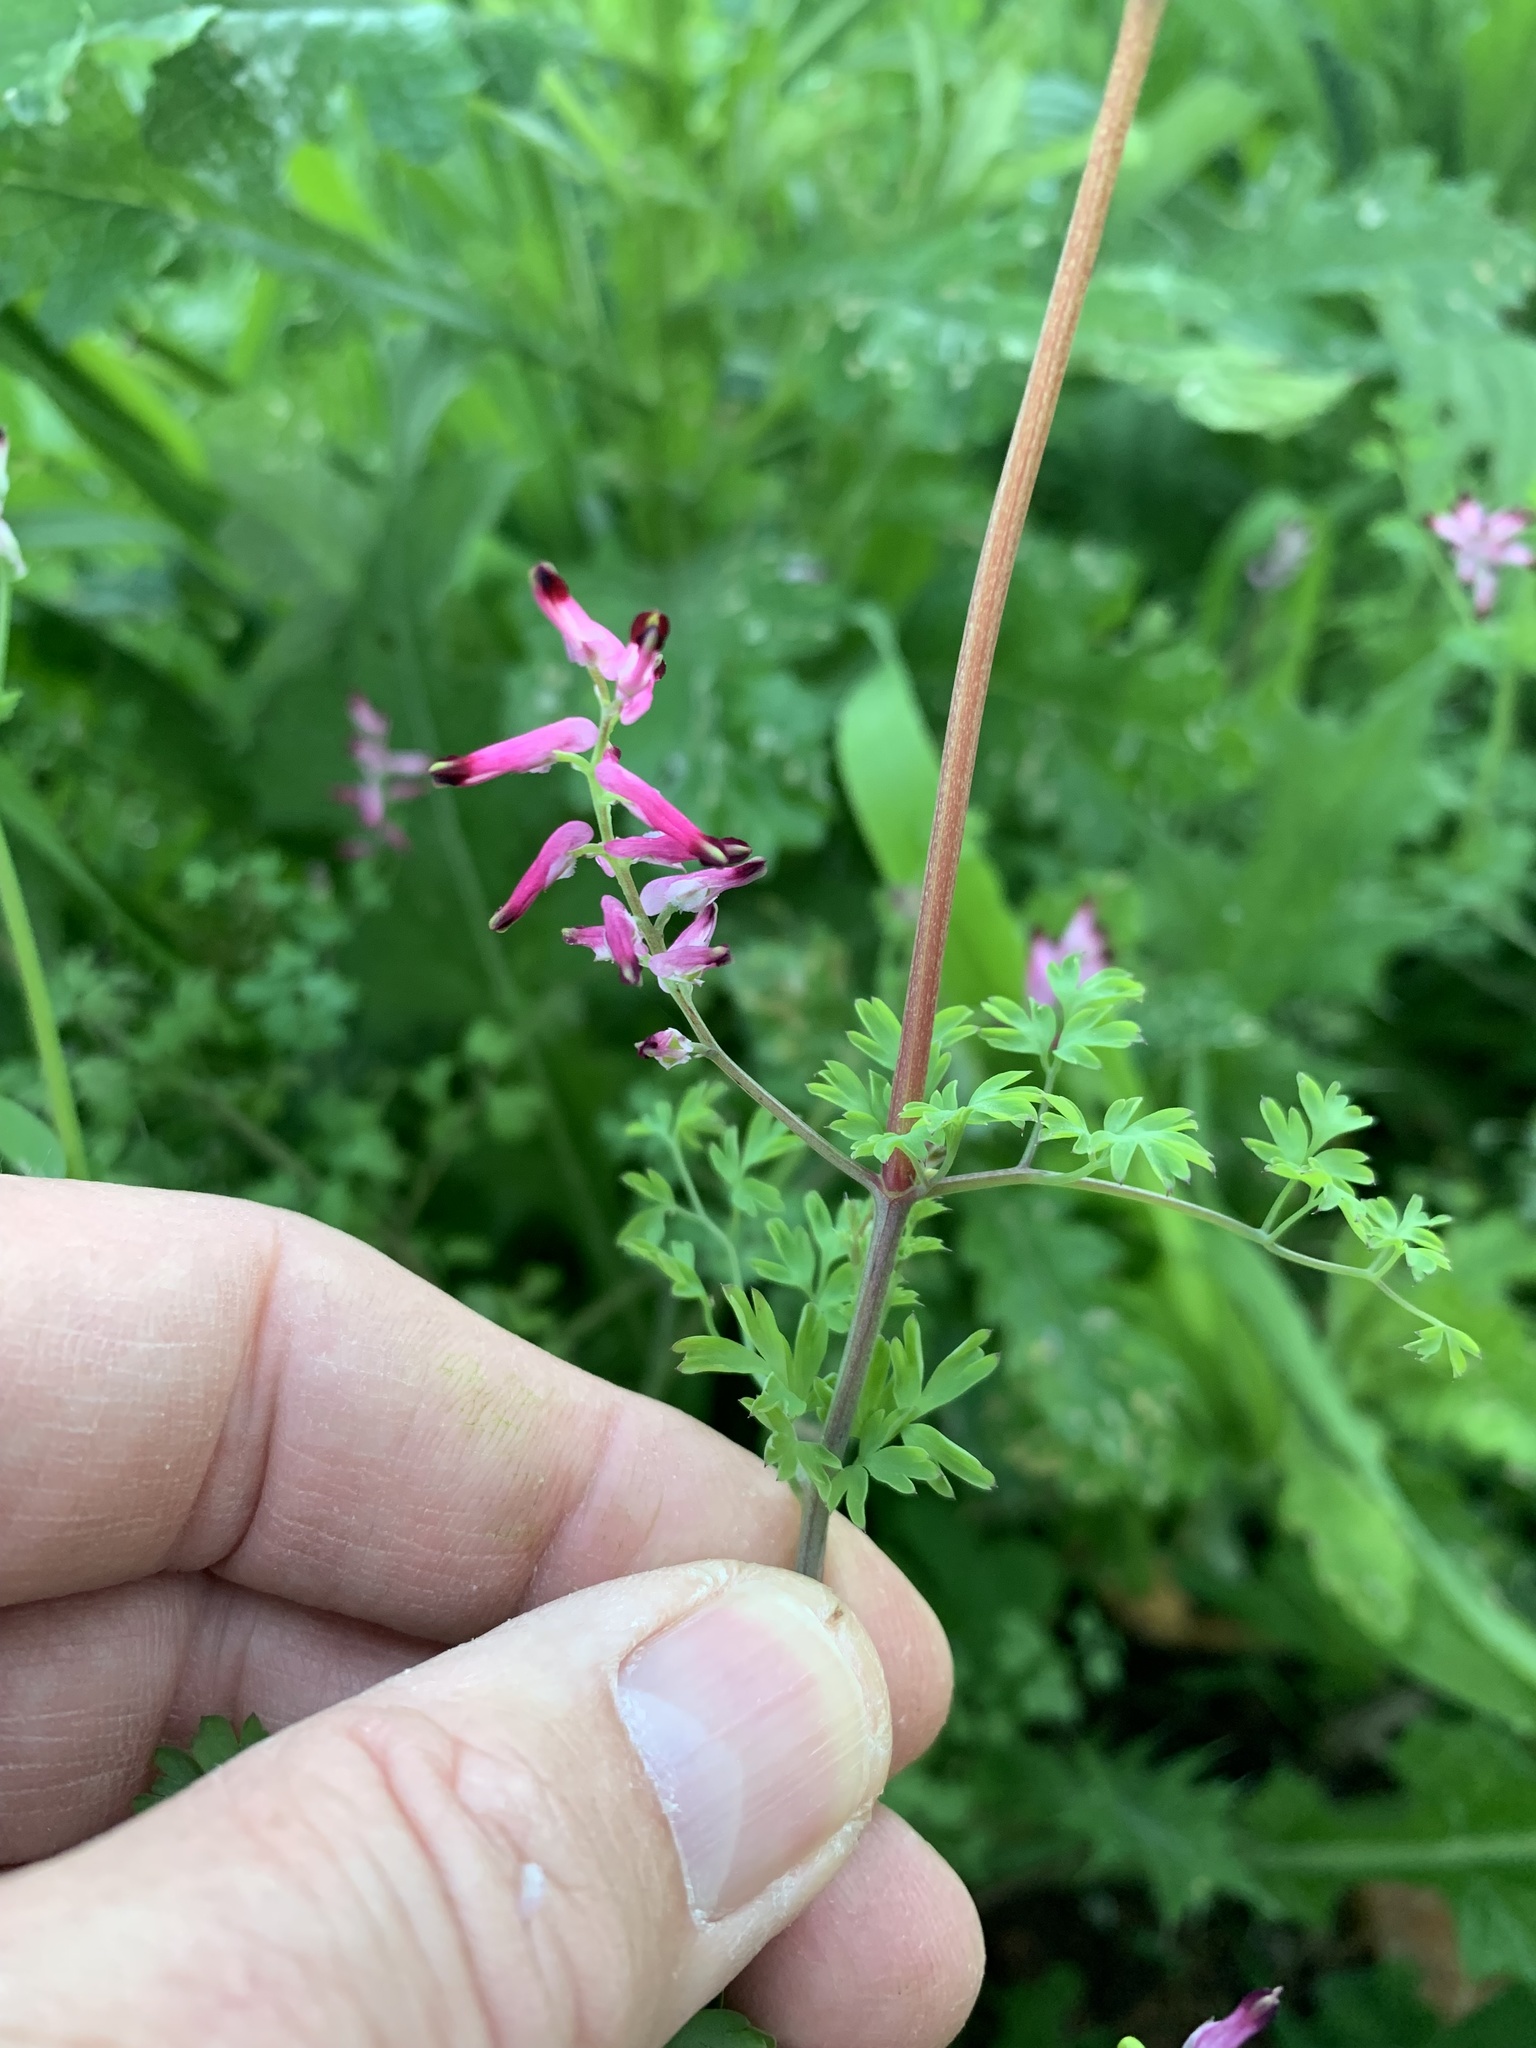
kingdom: Plantae
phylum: Tracheophyta
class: Magnoliopsida
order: Ranunculales
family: Papaveraceae
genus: Fumaria
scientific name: Fumaria muralis
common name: Common ramping-fumitory
